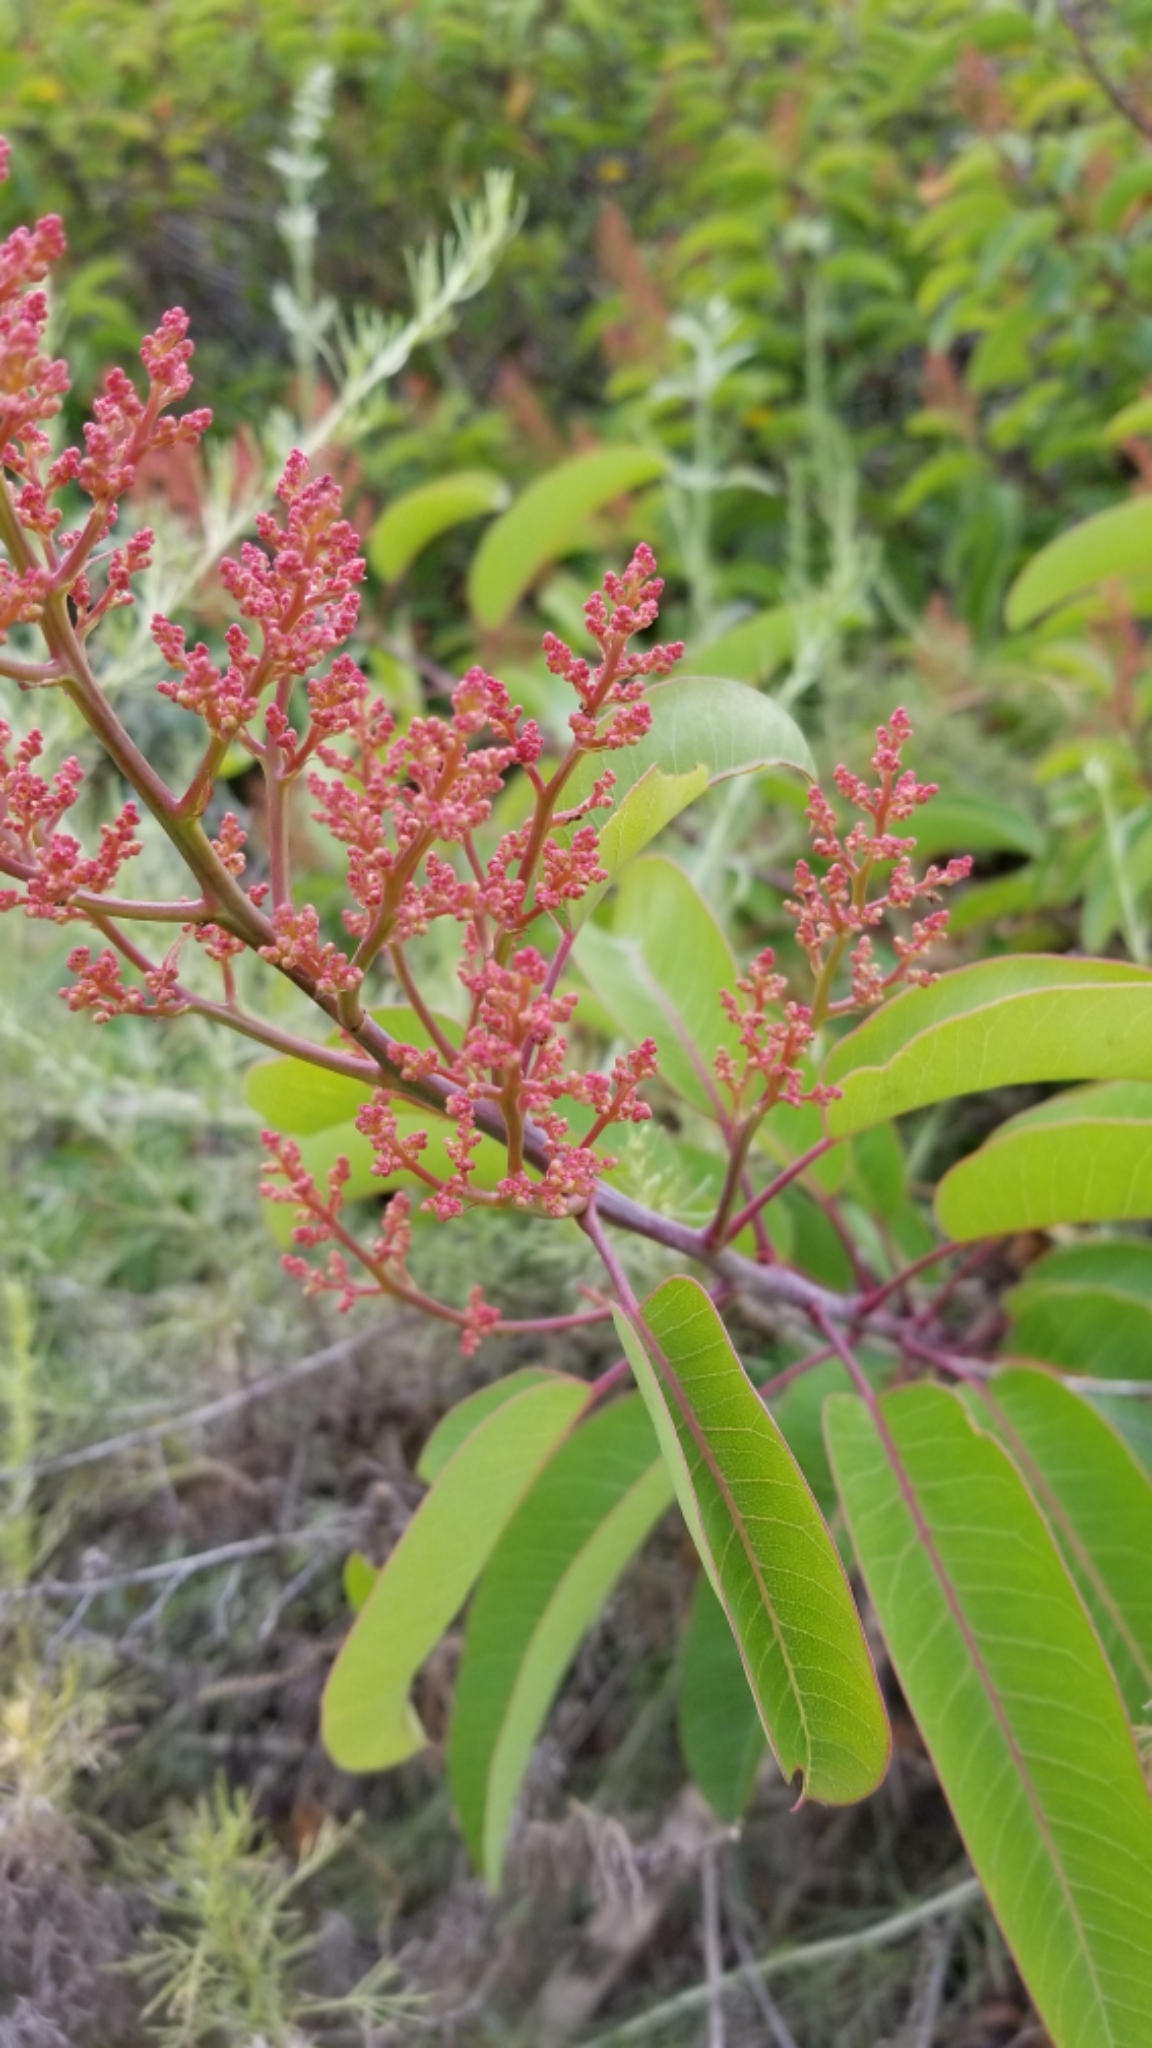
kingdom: Plantae
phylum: Tracheophyta
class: Magnoliopsida
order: Sapindales
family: Anacardiaceae
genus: Malosma
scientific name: Malosma laurina
